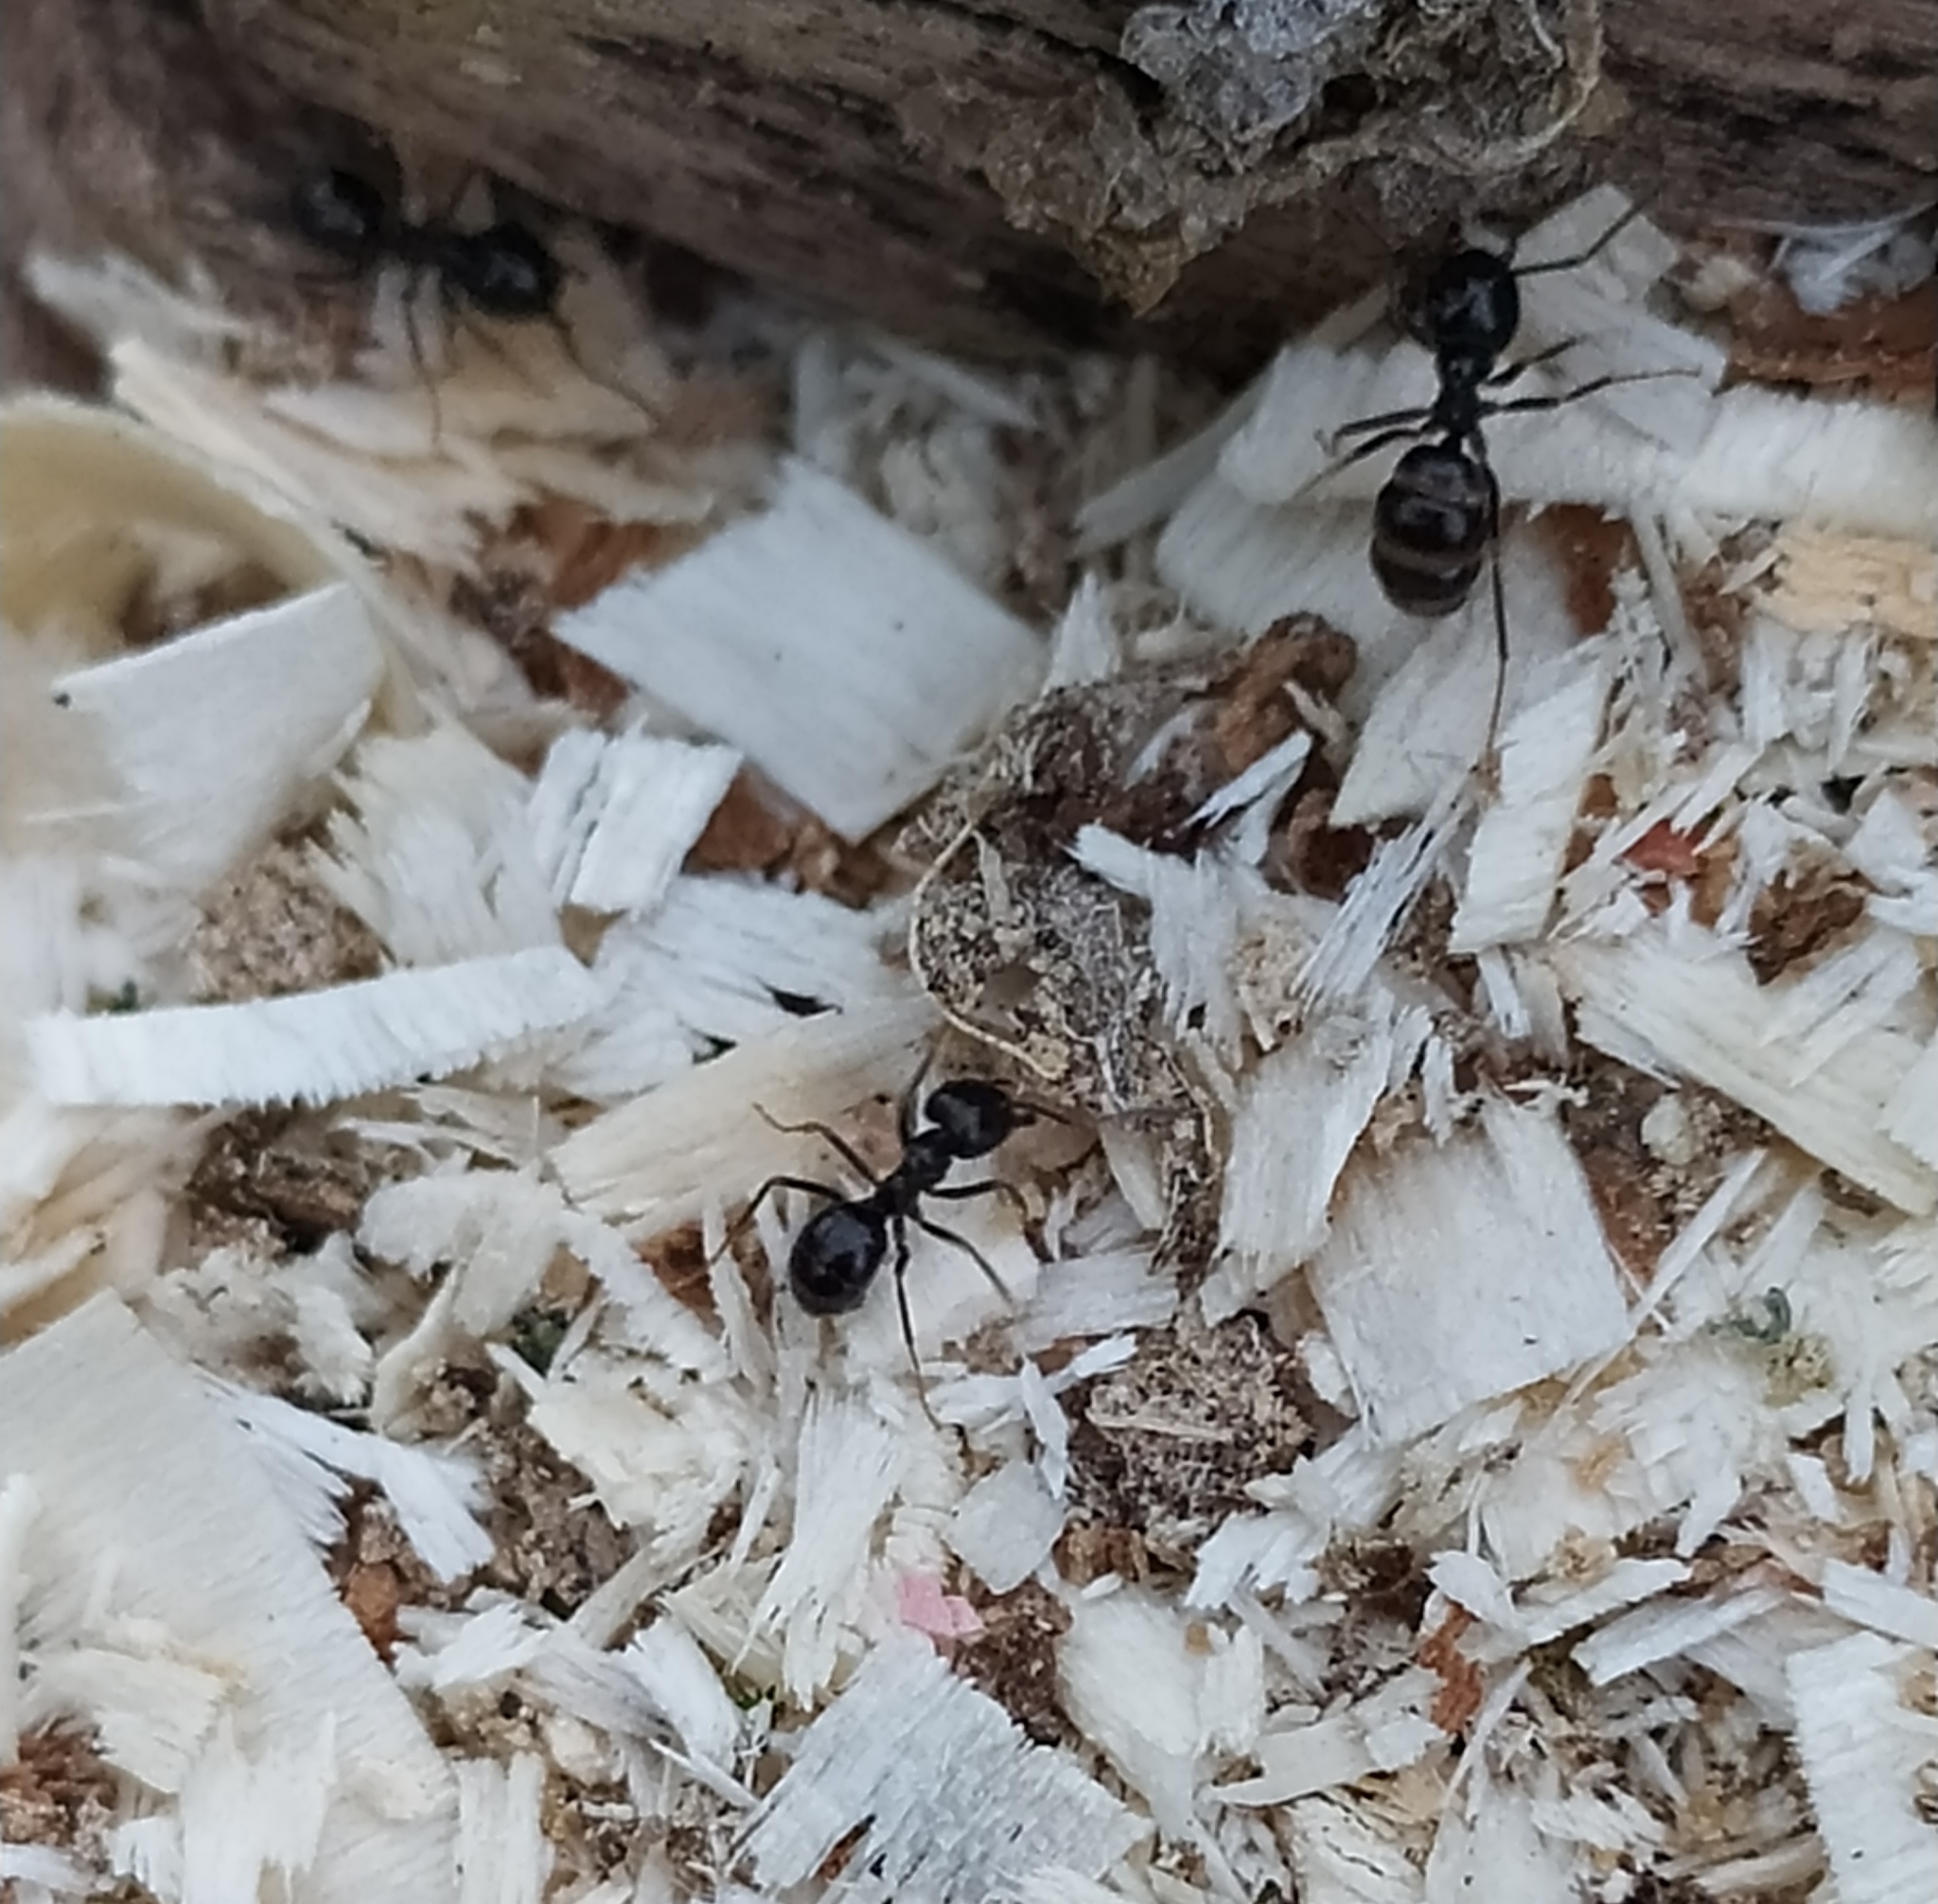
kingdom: Animalia
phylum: Arthropoda
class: Insecta
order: Hymenoptera
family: Formicidae
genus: Lasius
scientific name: Lasius fuliginosus
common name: Jet ant
